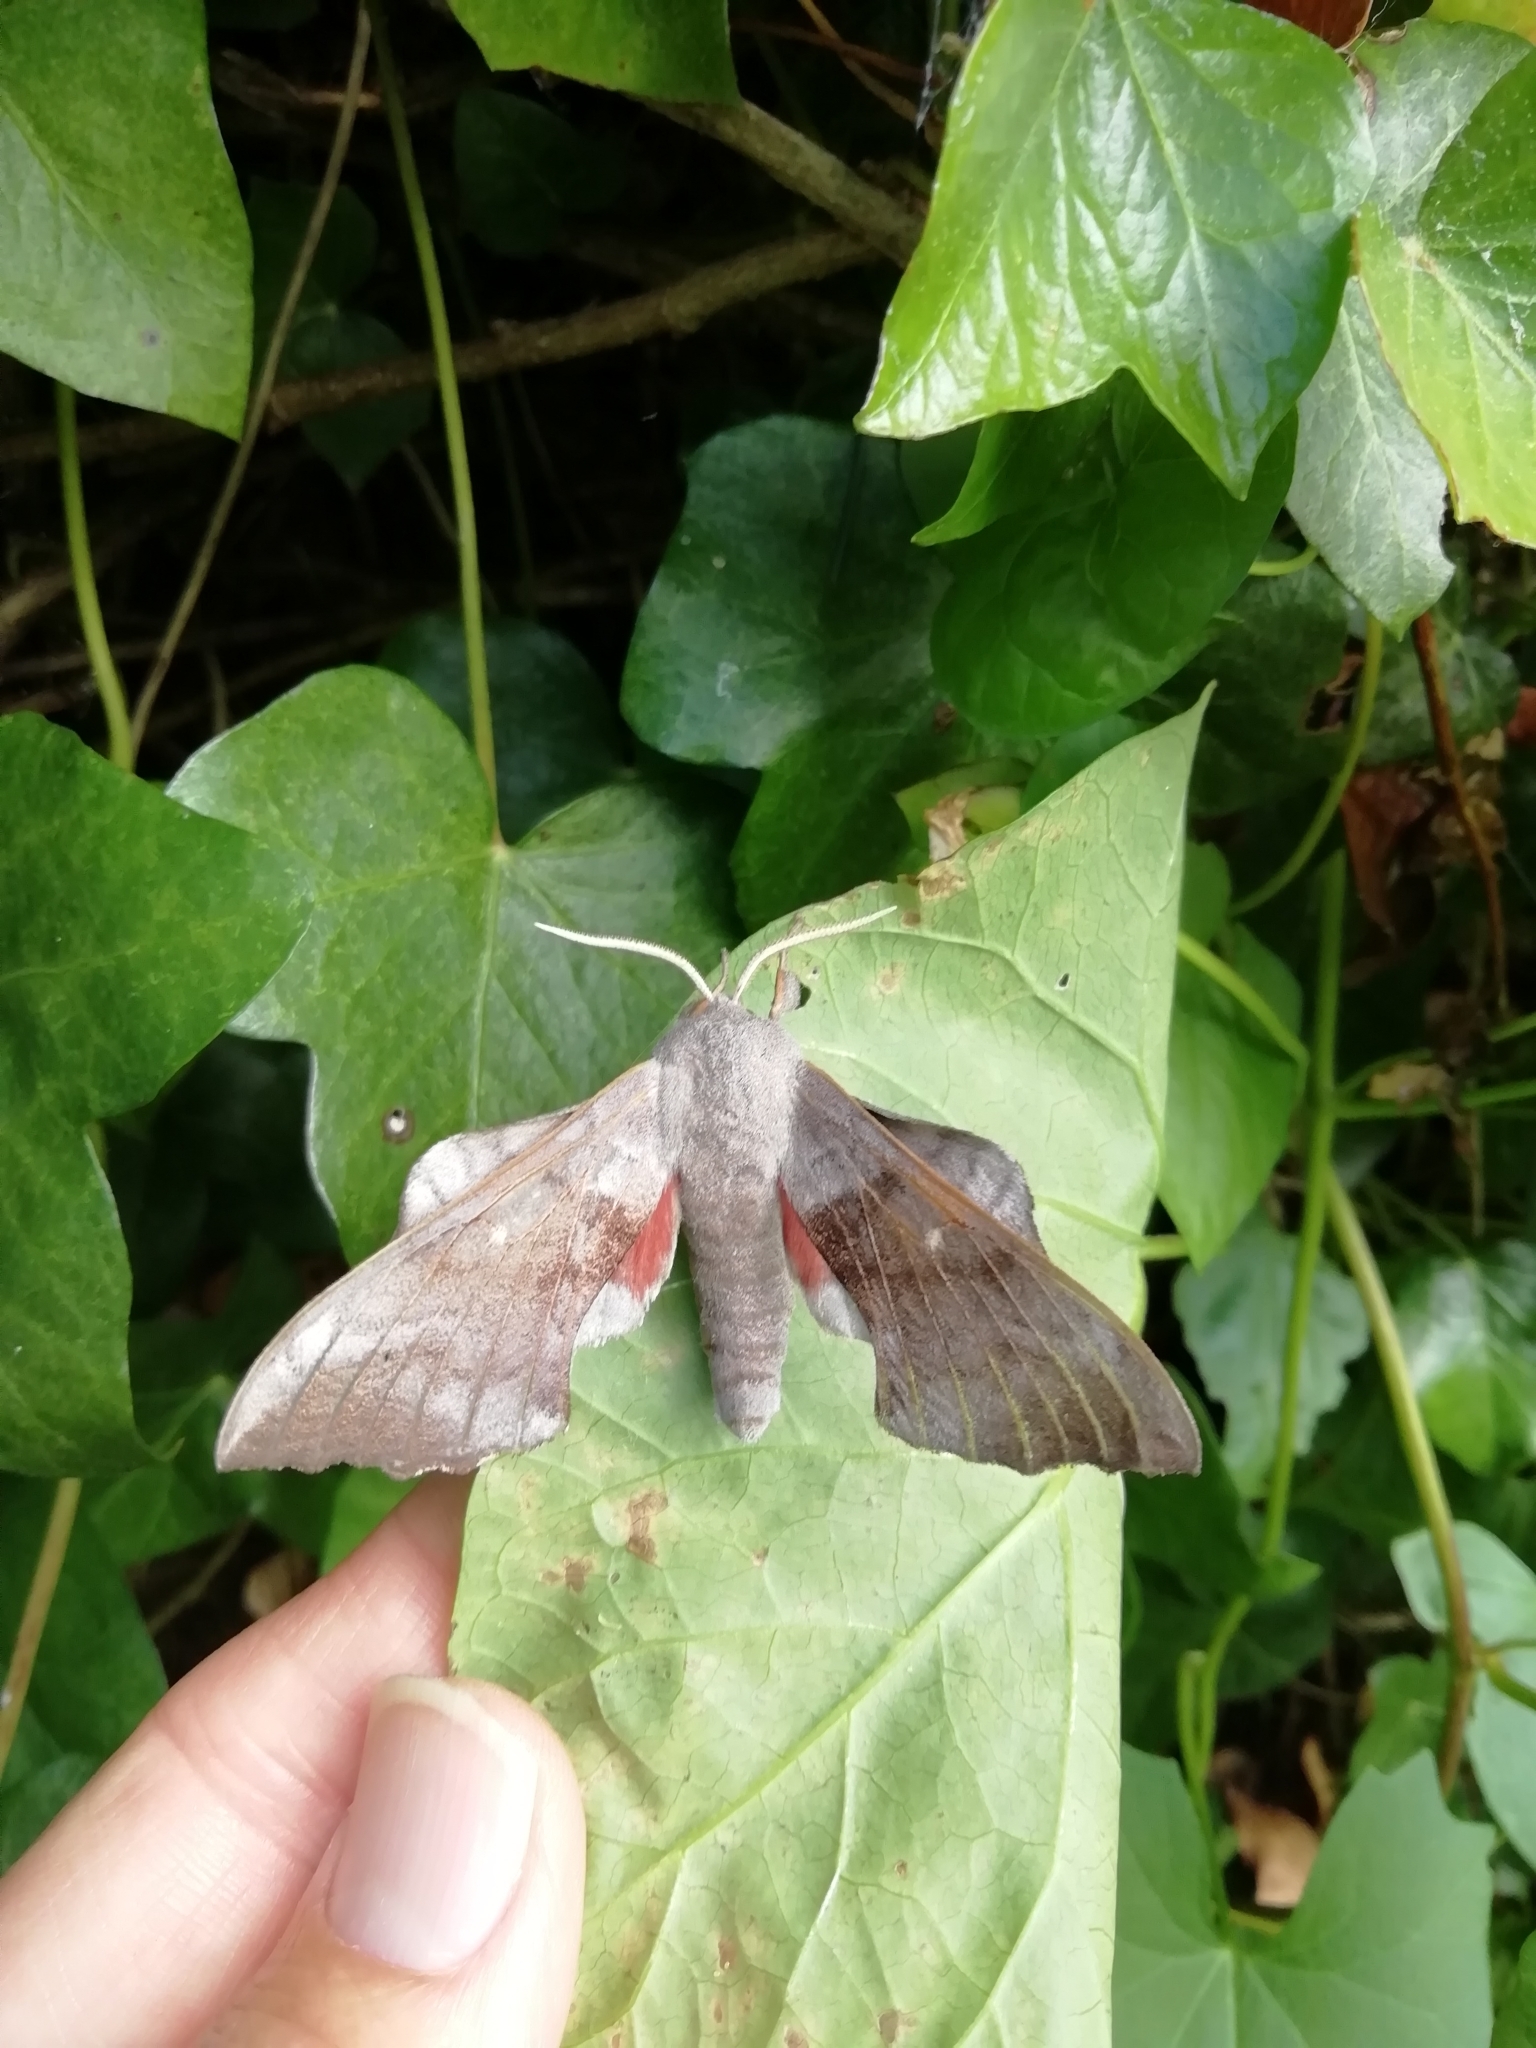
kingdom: Animalia
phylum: Arthropoda
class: Insecta
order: Lepidoptera
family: Sphingidae
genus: Laothoe
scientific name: Laothoe populi
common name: Poplar hawk-moth
